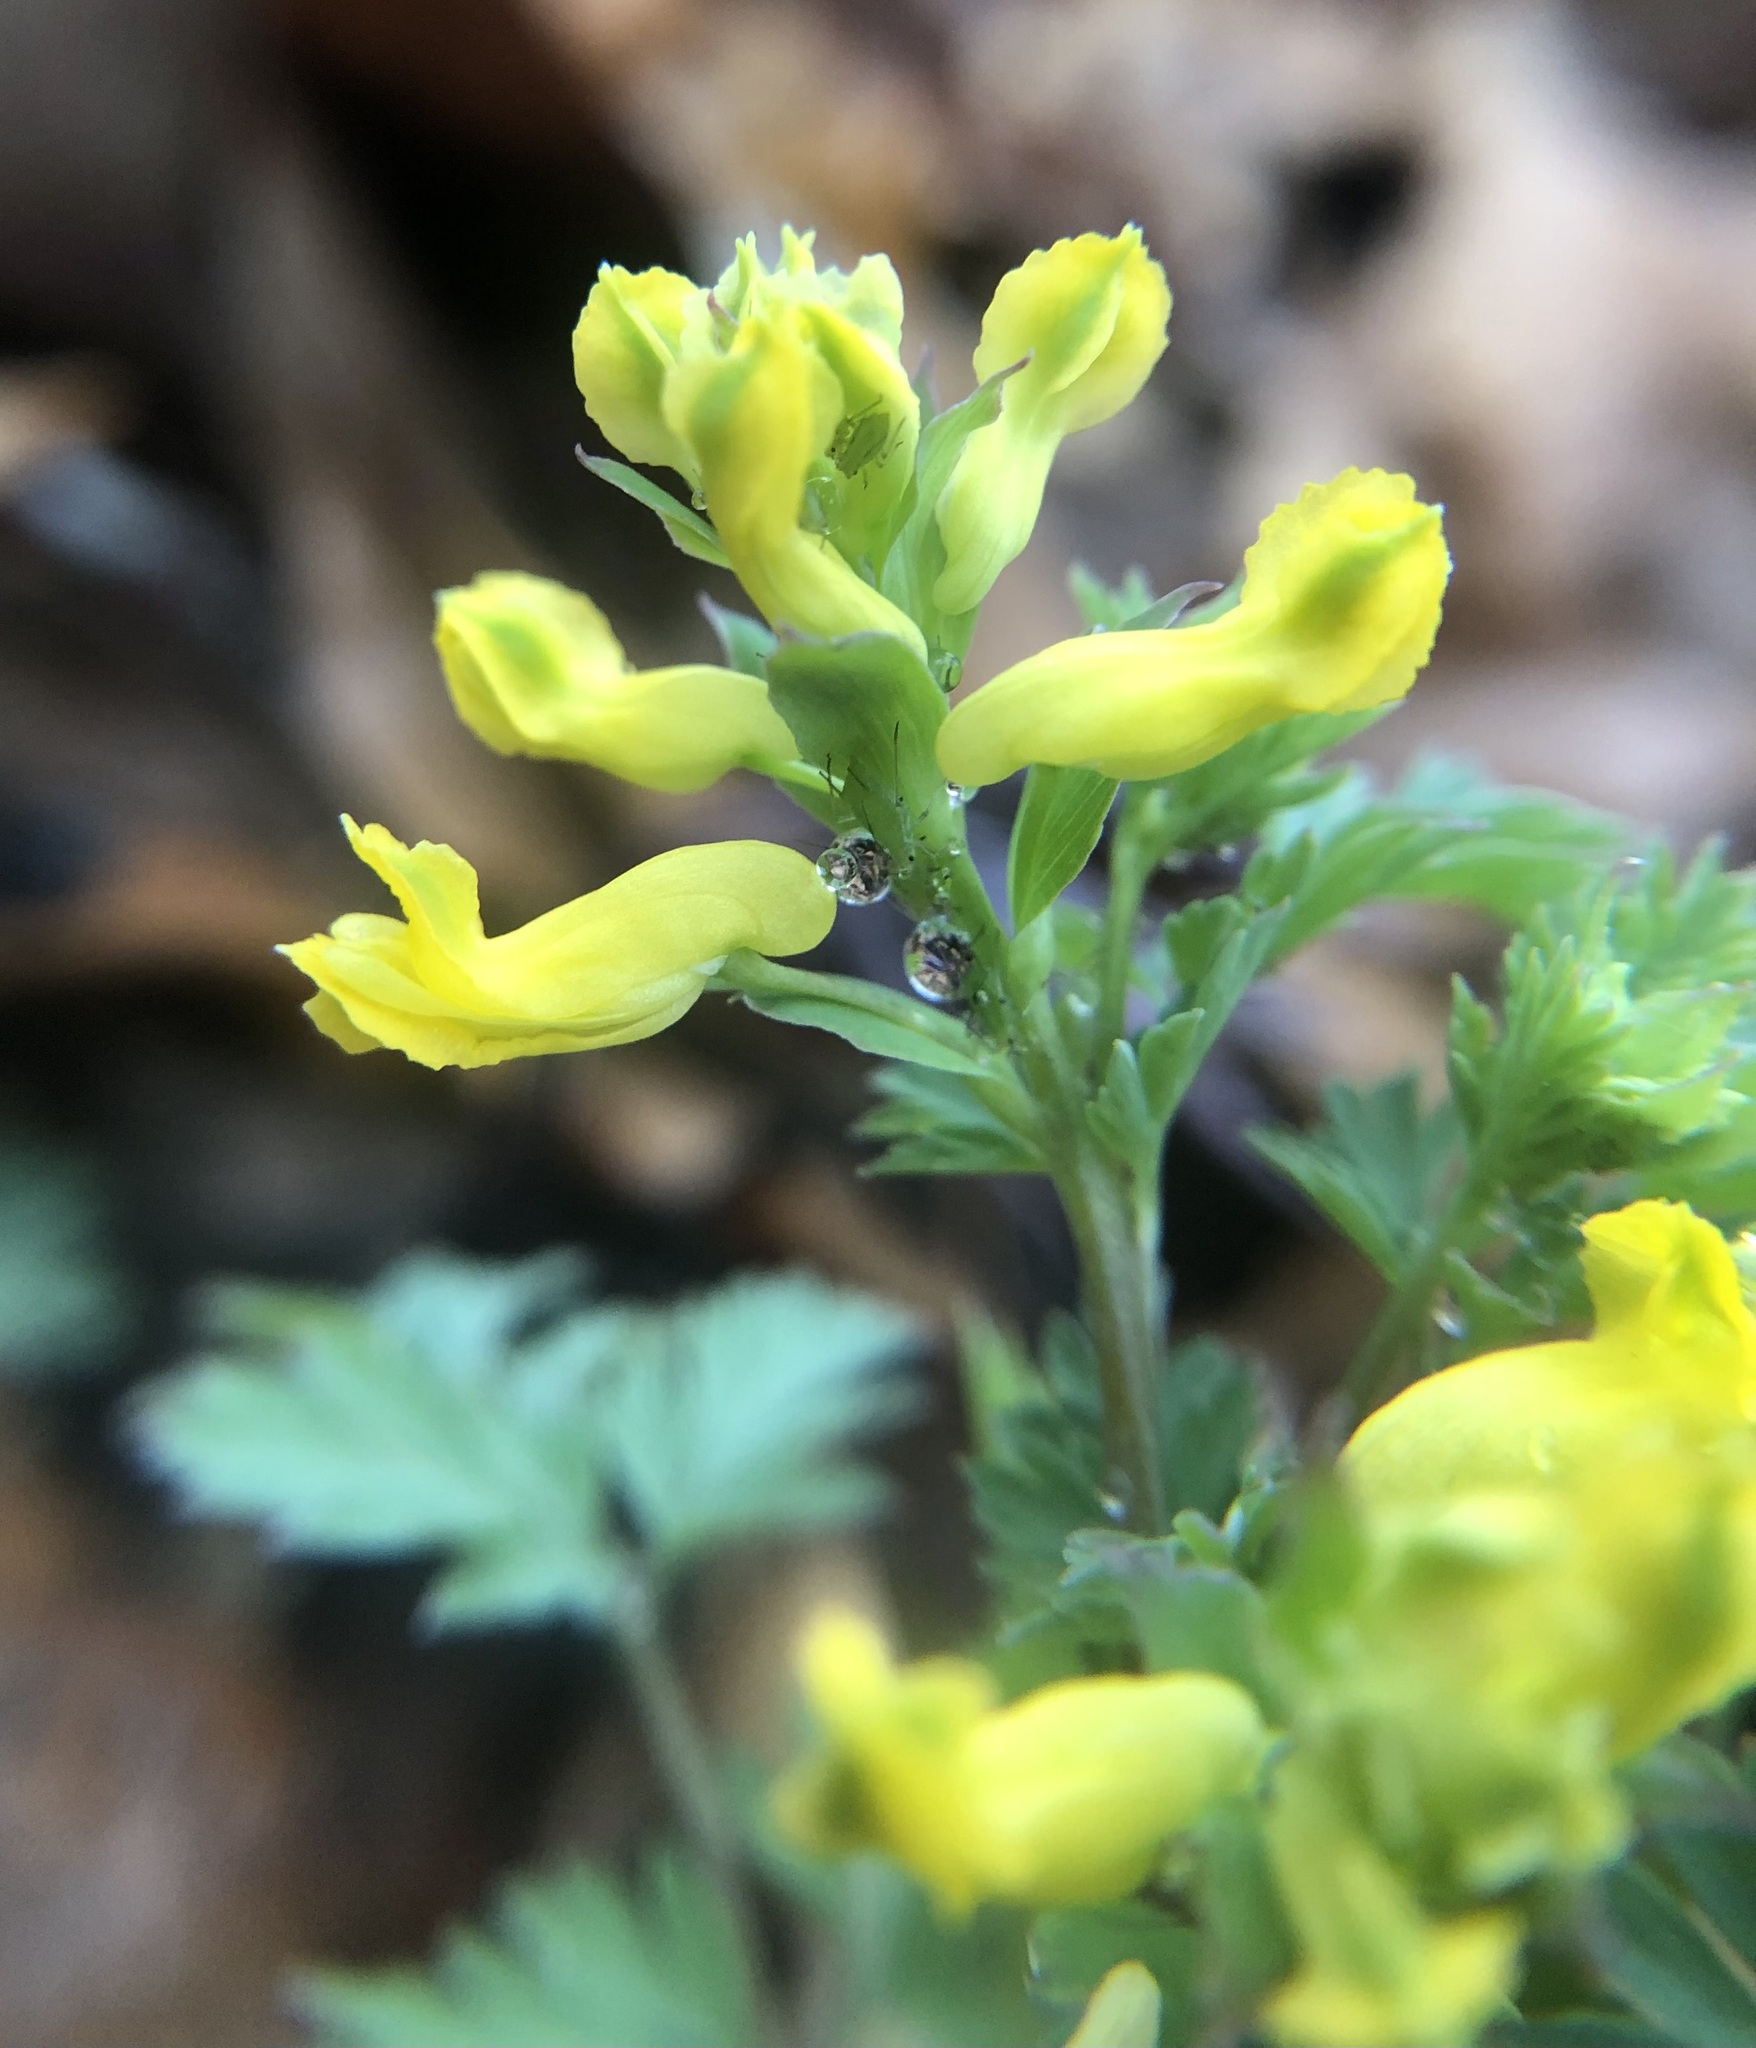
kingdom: Plantae
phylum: Tracheophyta
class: Magnoliopsida
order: Ranunculales
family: Papaveraceae
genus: Corydalis
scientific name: Corydalis flavula
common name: Yellow corydalis
